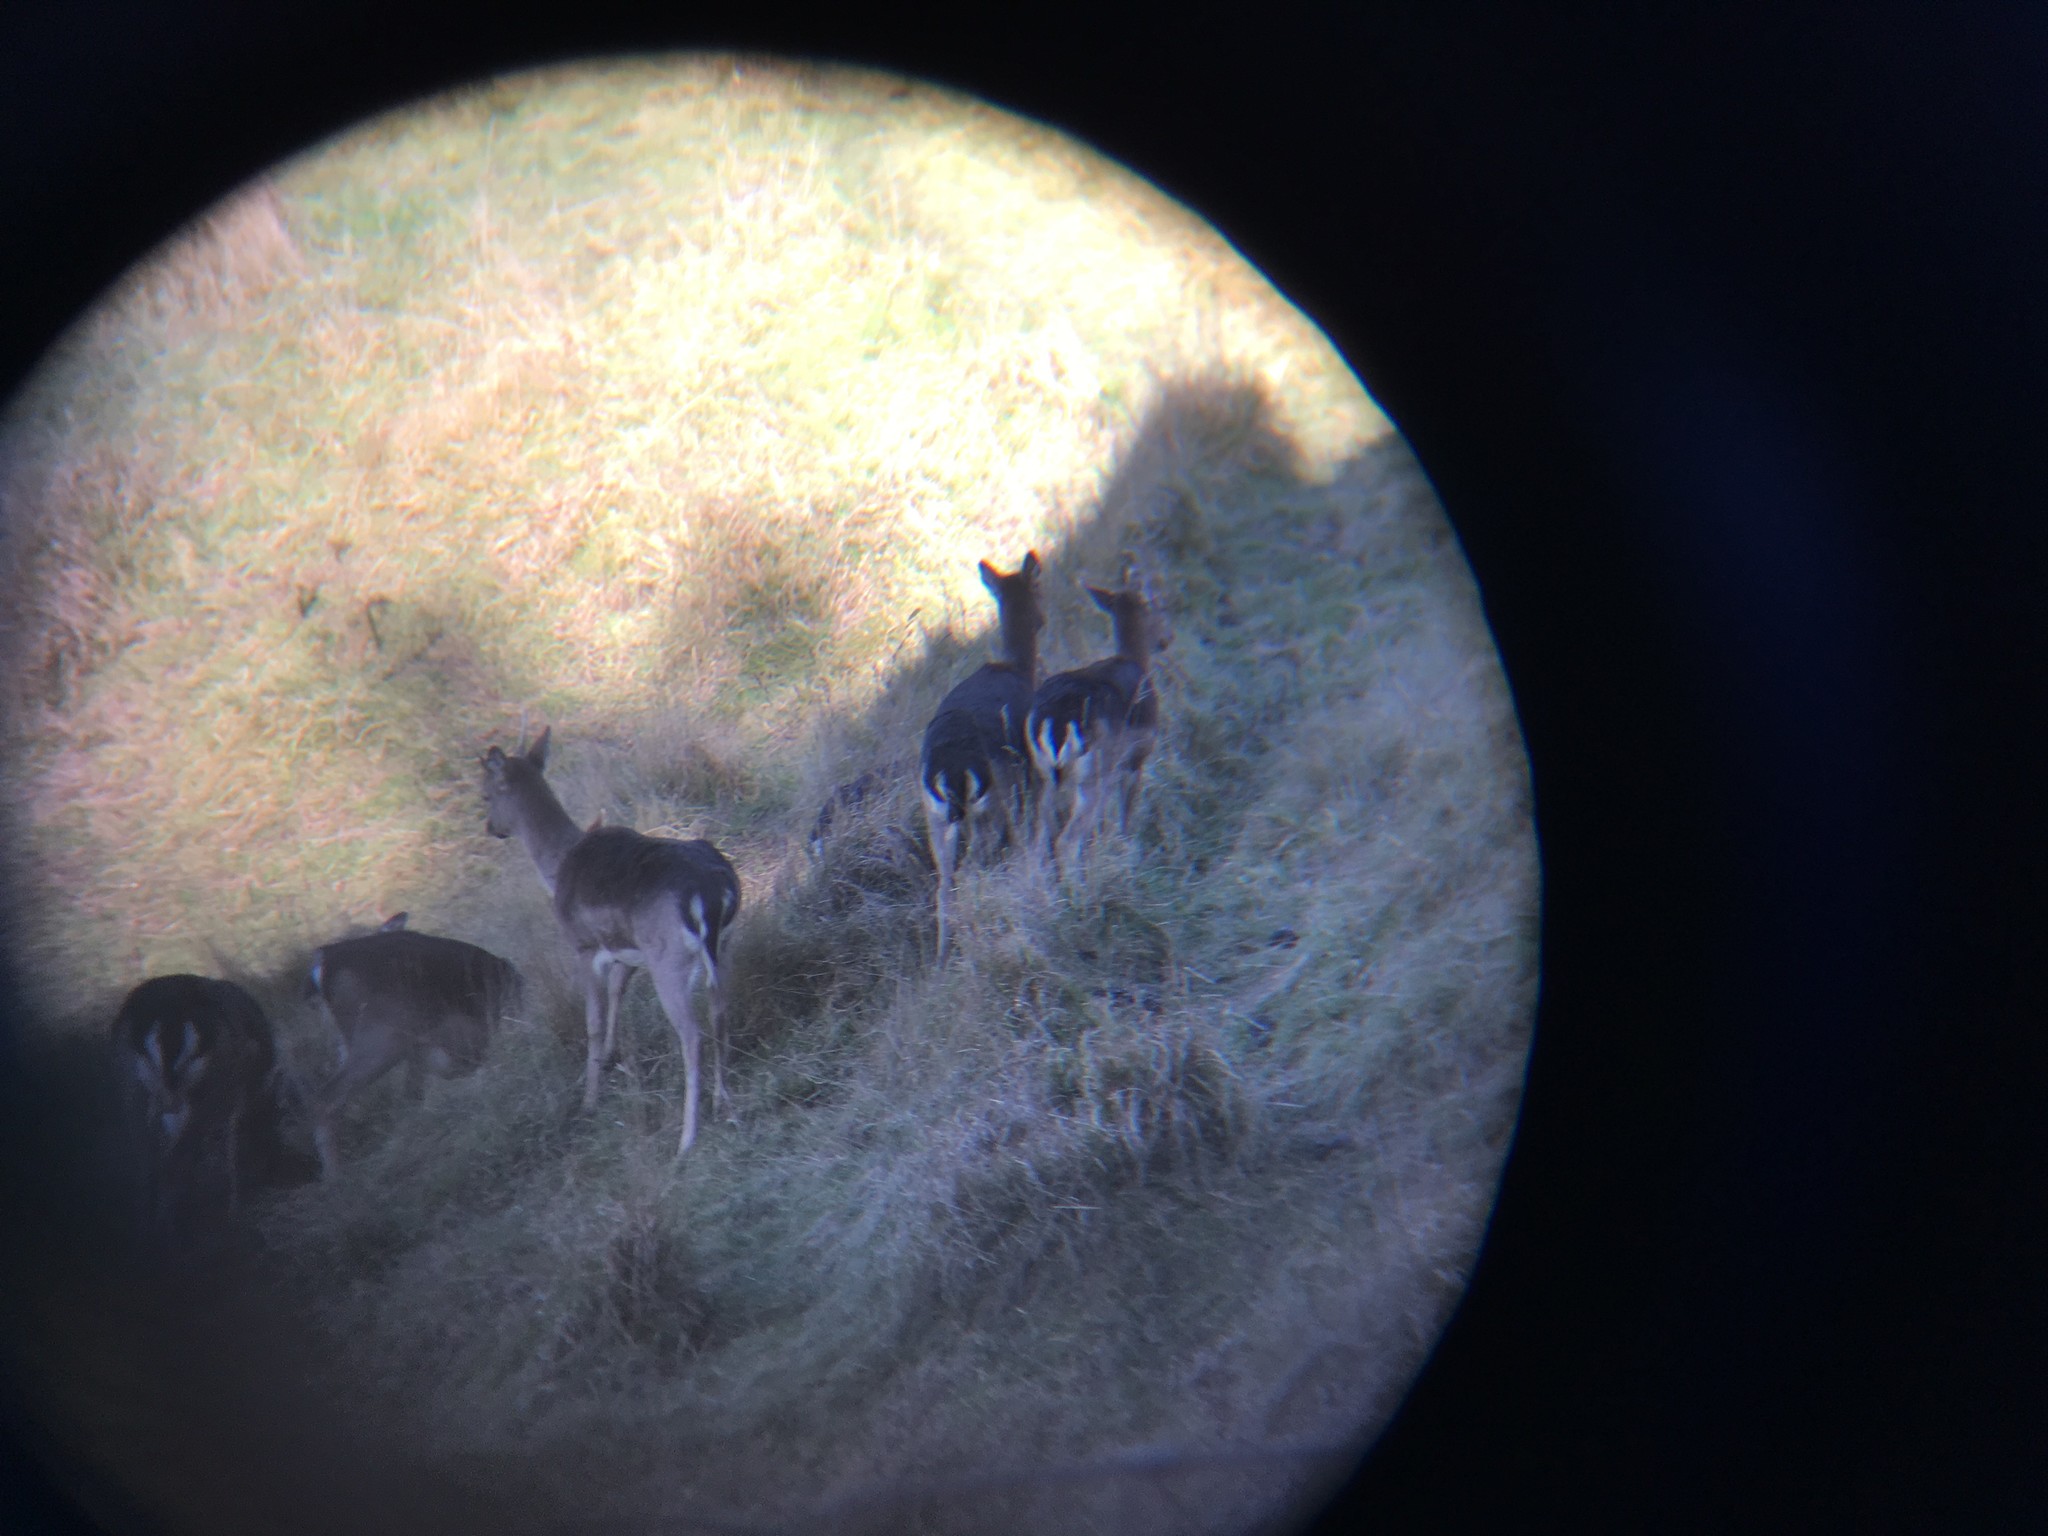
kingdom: Animalia
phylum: Chordata
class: Mammalia
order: Artiodactyla
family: Cervidae
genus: Dama
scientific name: Dama dama
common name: Fallow deer
